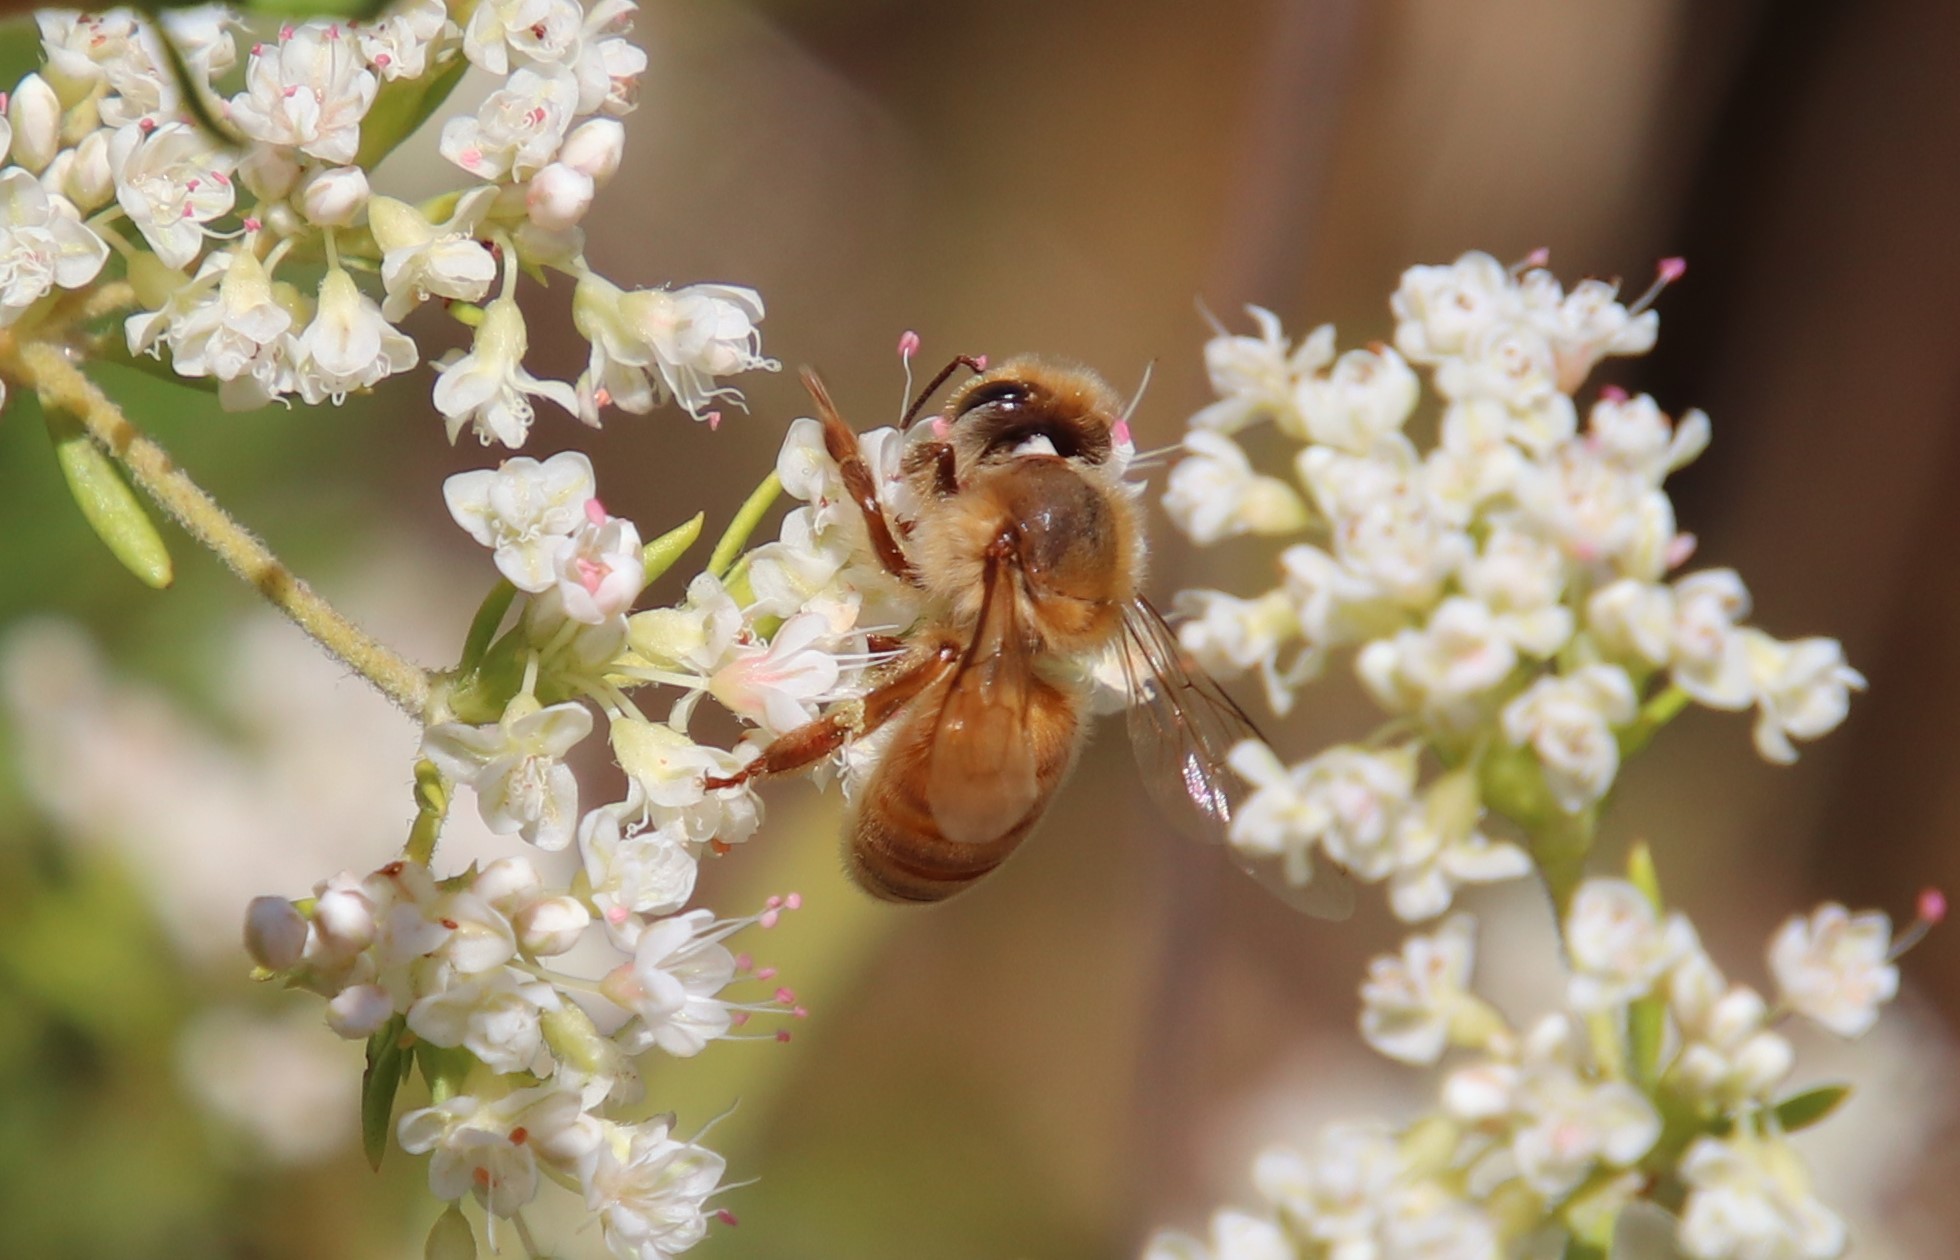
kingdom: Animalia
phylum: Arthropoda
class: Insecta
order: Hymenoptera
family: Apidae
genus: Apis
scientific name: Apis mellifera
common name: Honey bee
